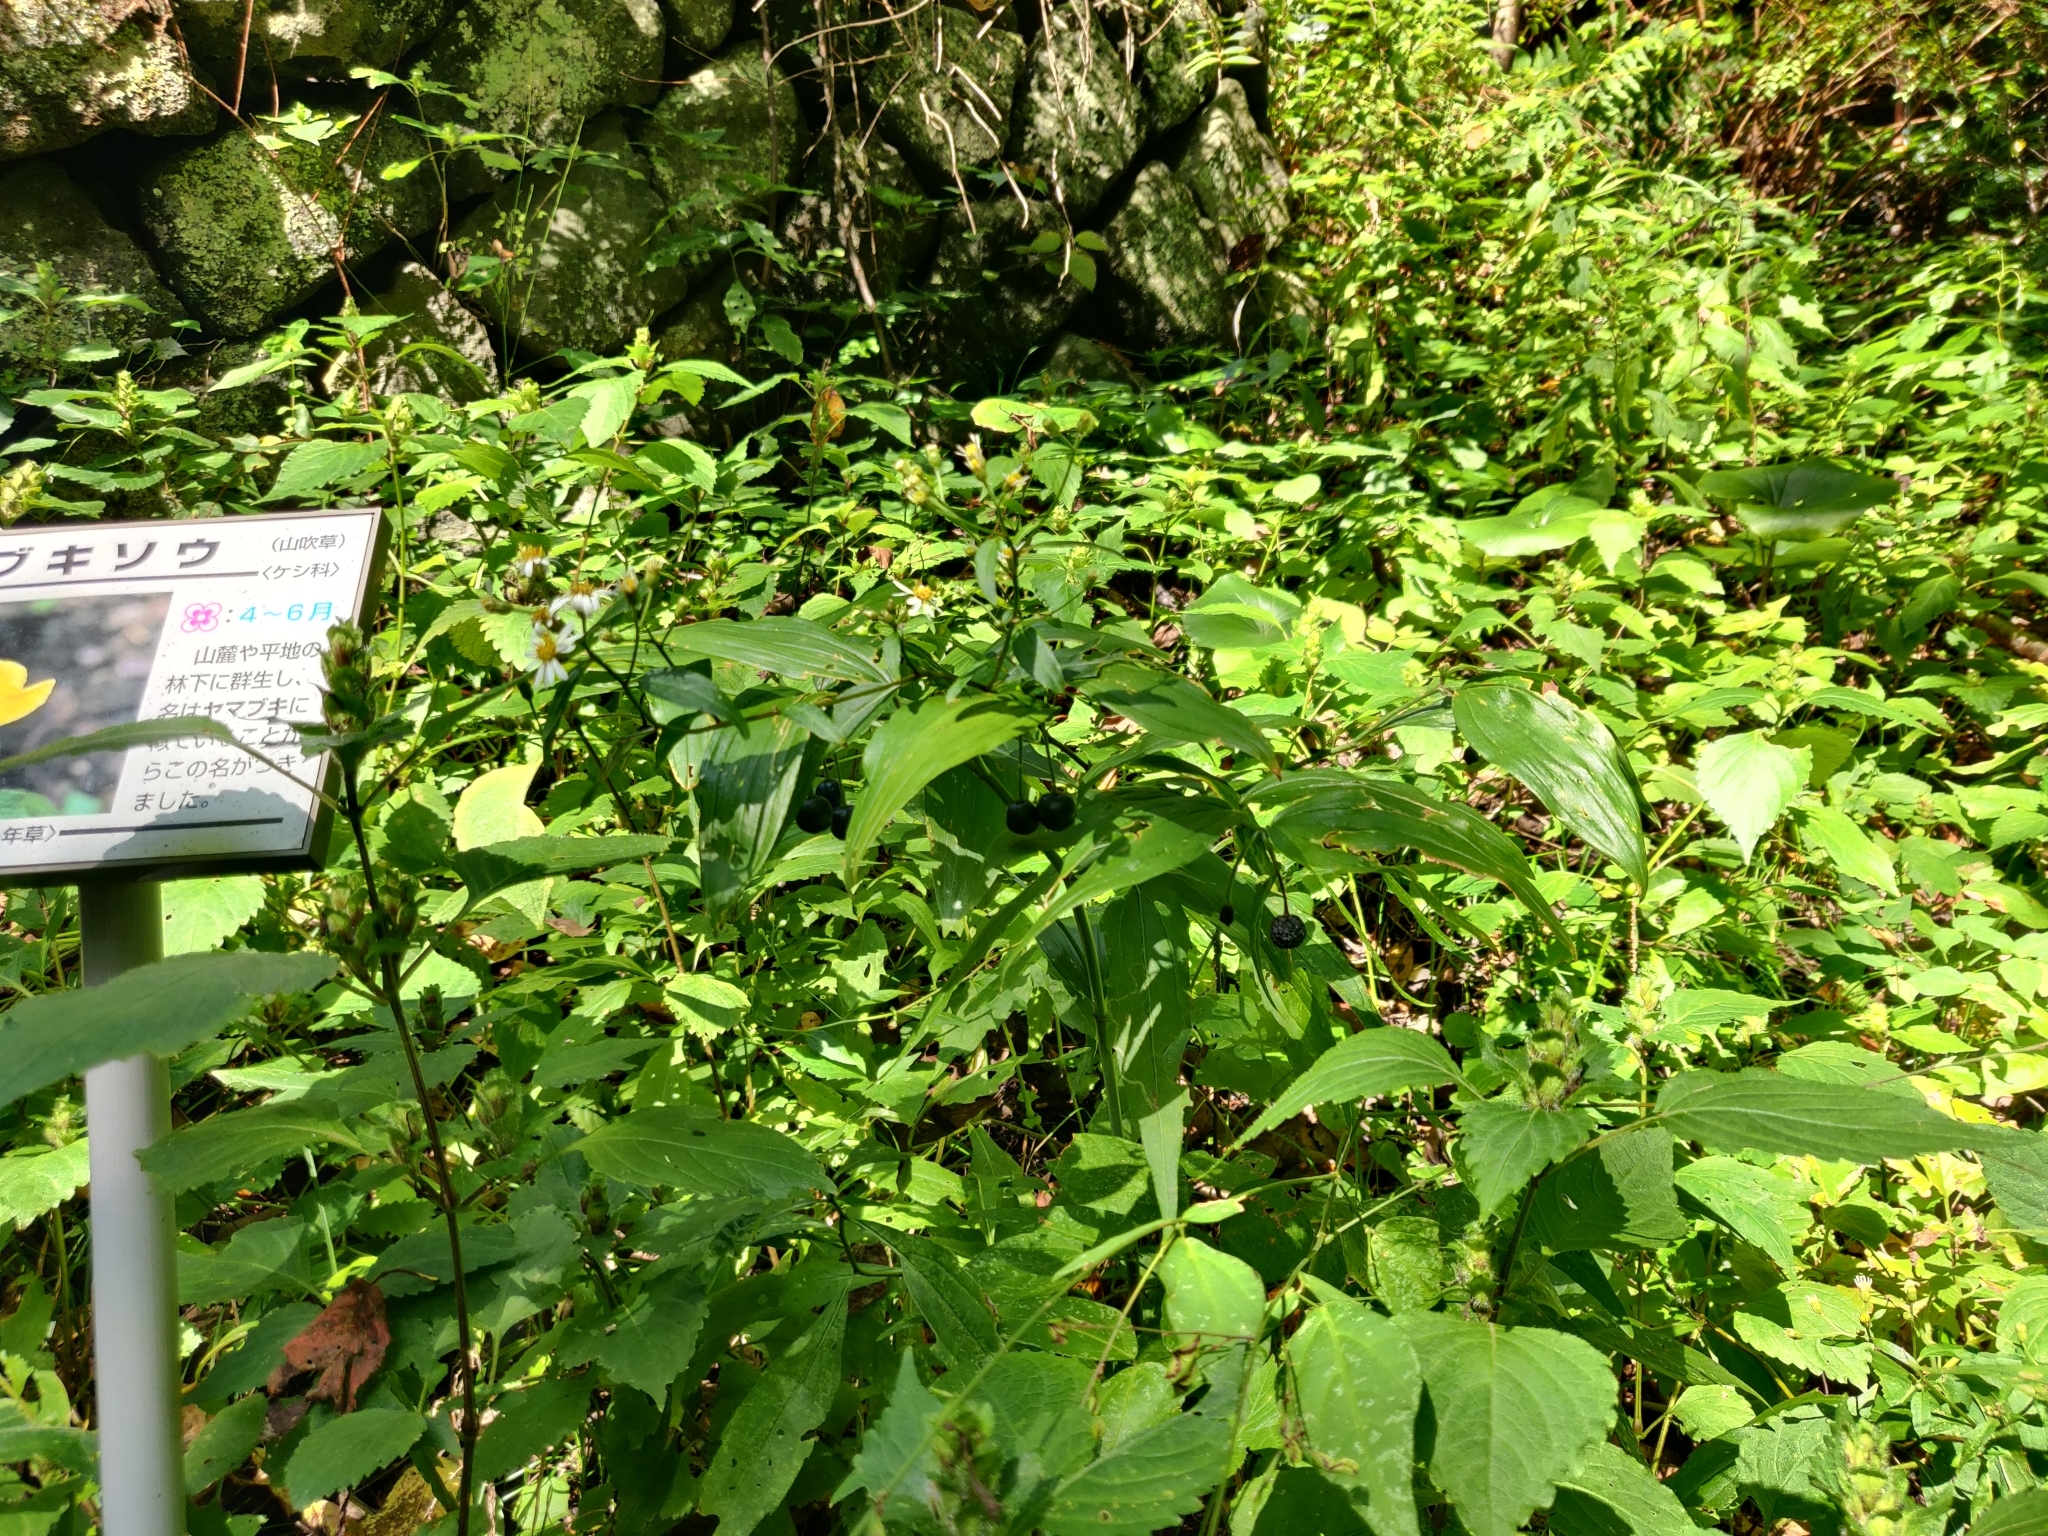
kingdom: Plantae
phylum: Tracheophyta
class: Liliopsida
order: Liliales
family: Colchicaceae
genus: Disporum
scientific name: Disporum sessile
